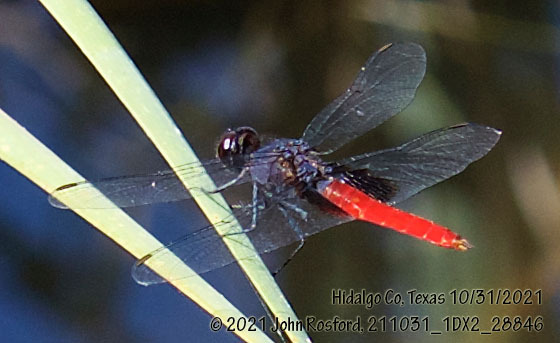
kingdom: Animalia
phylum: Arthropoda
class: Insecta
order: Odonata
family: Libellulidae
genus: Planiplax
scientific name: Planiplax sanguiniventris
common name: Mexican scarlet-tail
